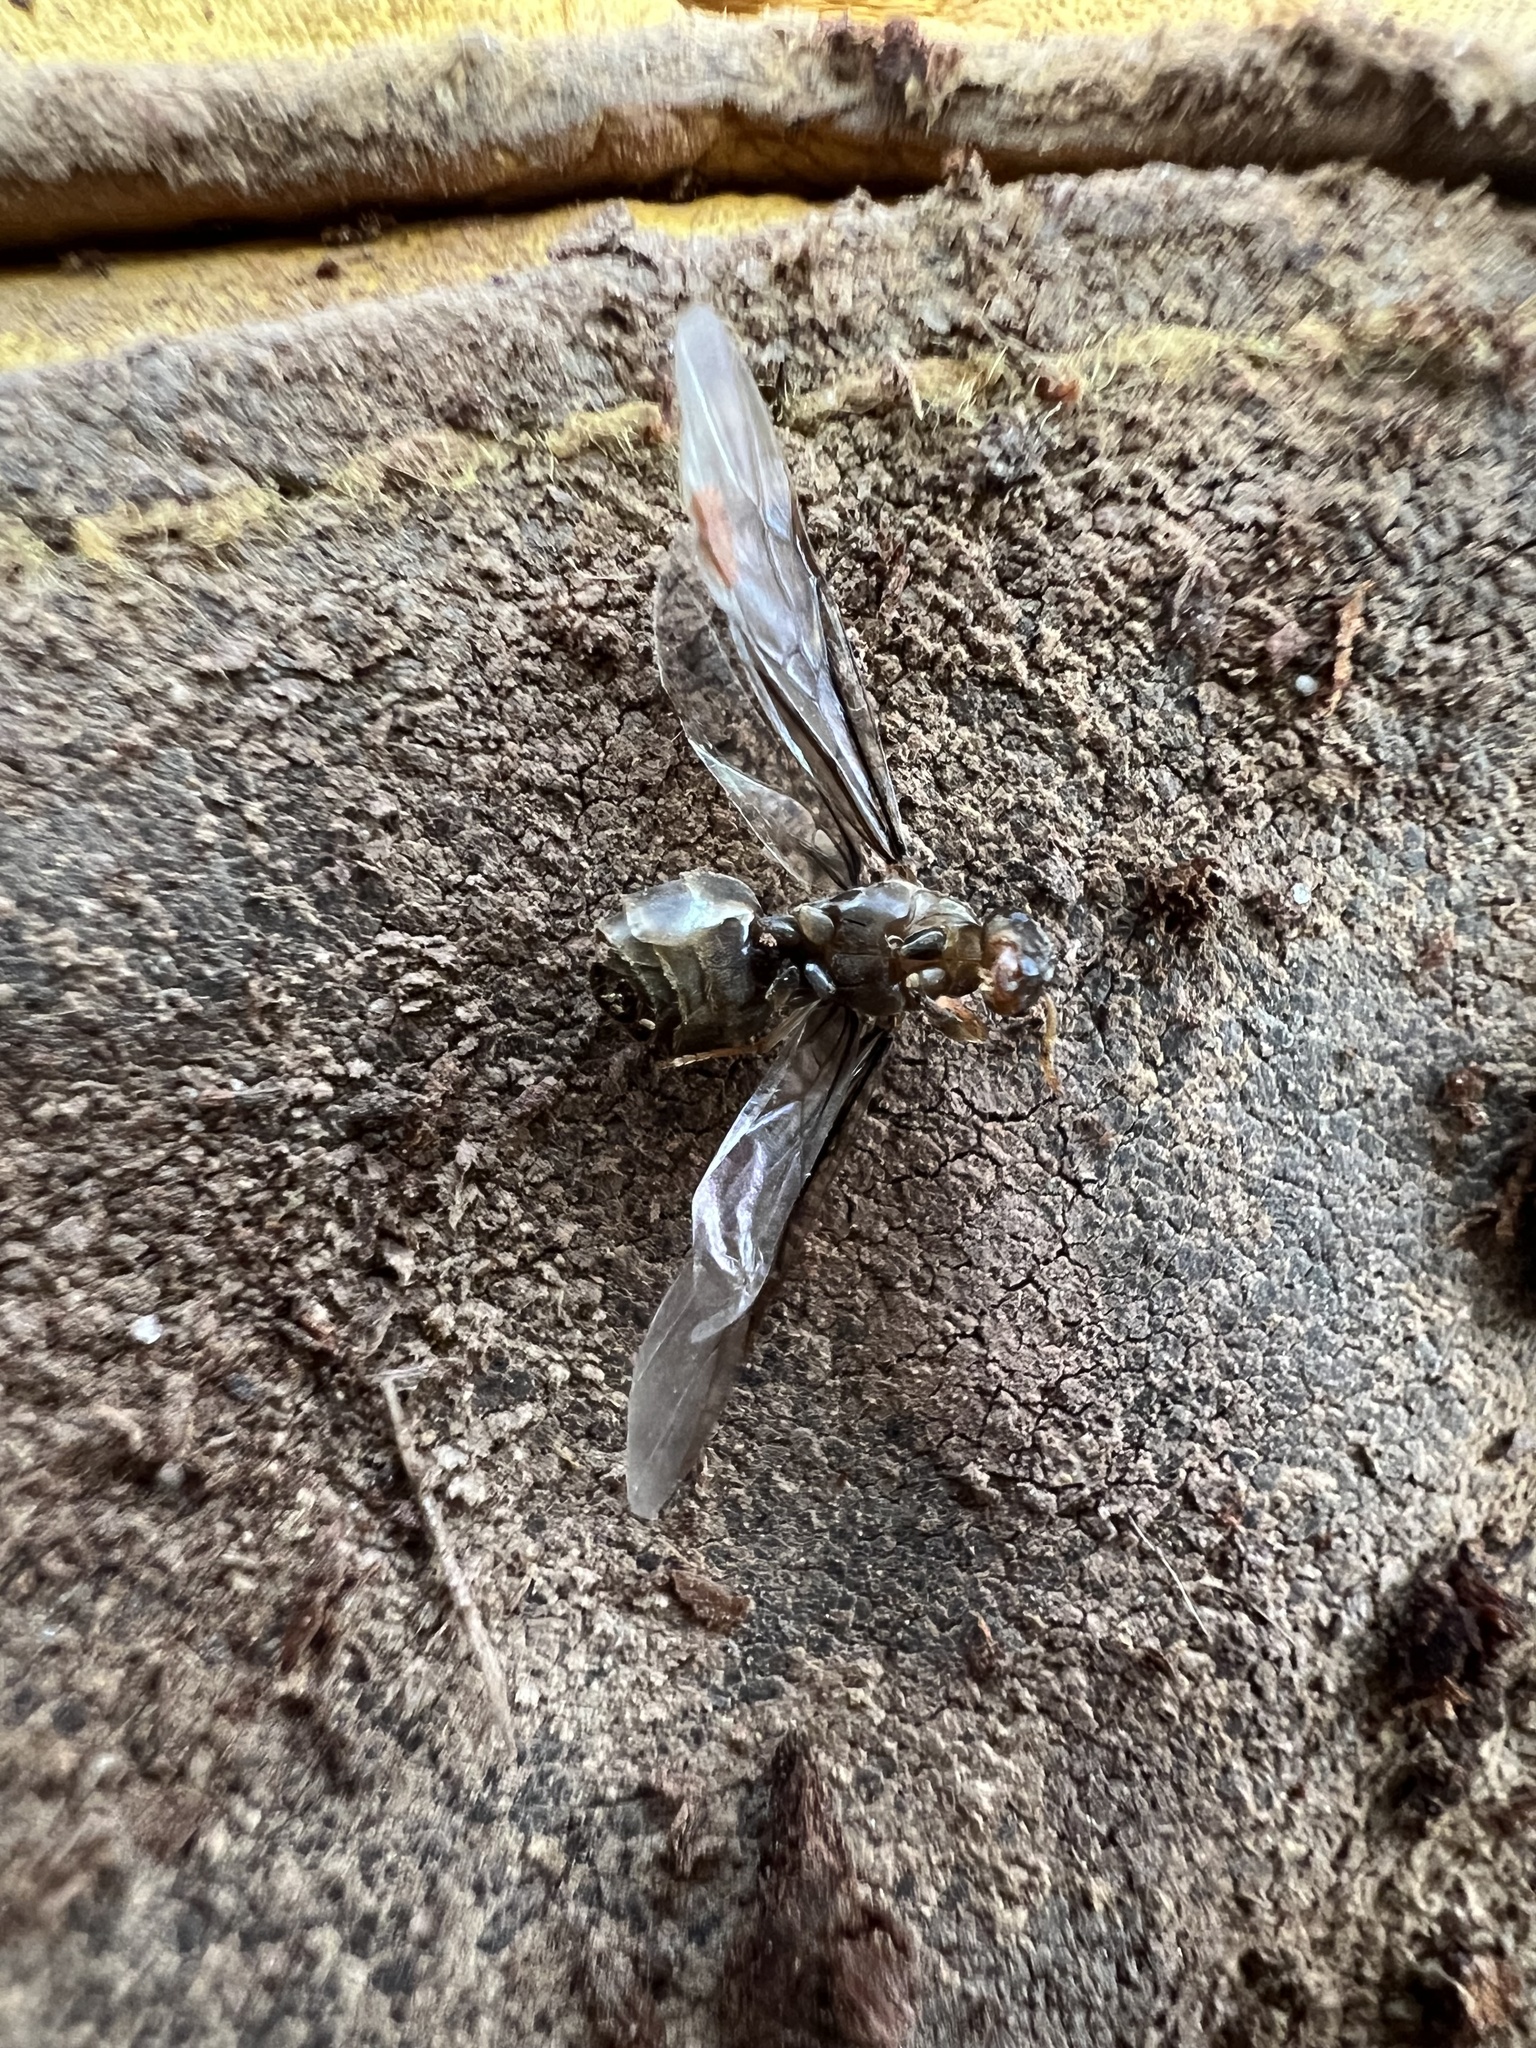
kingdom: Animalia
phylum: Arthropoda
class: Insecta
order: Hymenoptera
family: Formicidae
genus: Lasius
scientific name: Lasius aphidicola
